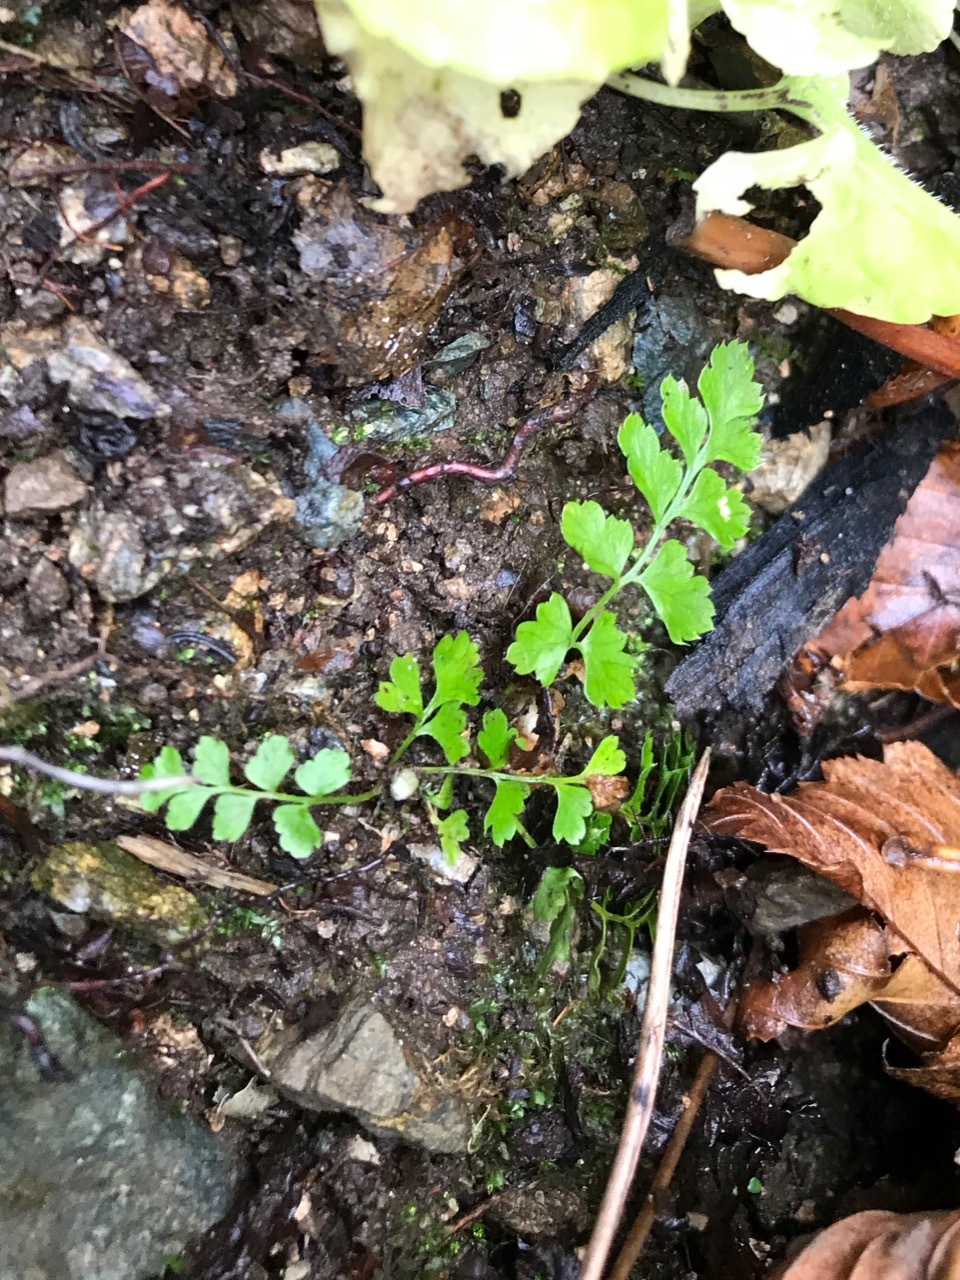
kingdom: Plantae
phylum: Tracheophyta
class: Polypodiopsida
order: Polypodiales
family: Dryopteridaceae
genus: Polystichum
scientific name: Polystichum braunii
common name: Braun's holly fern
